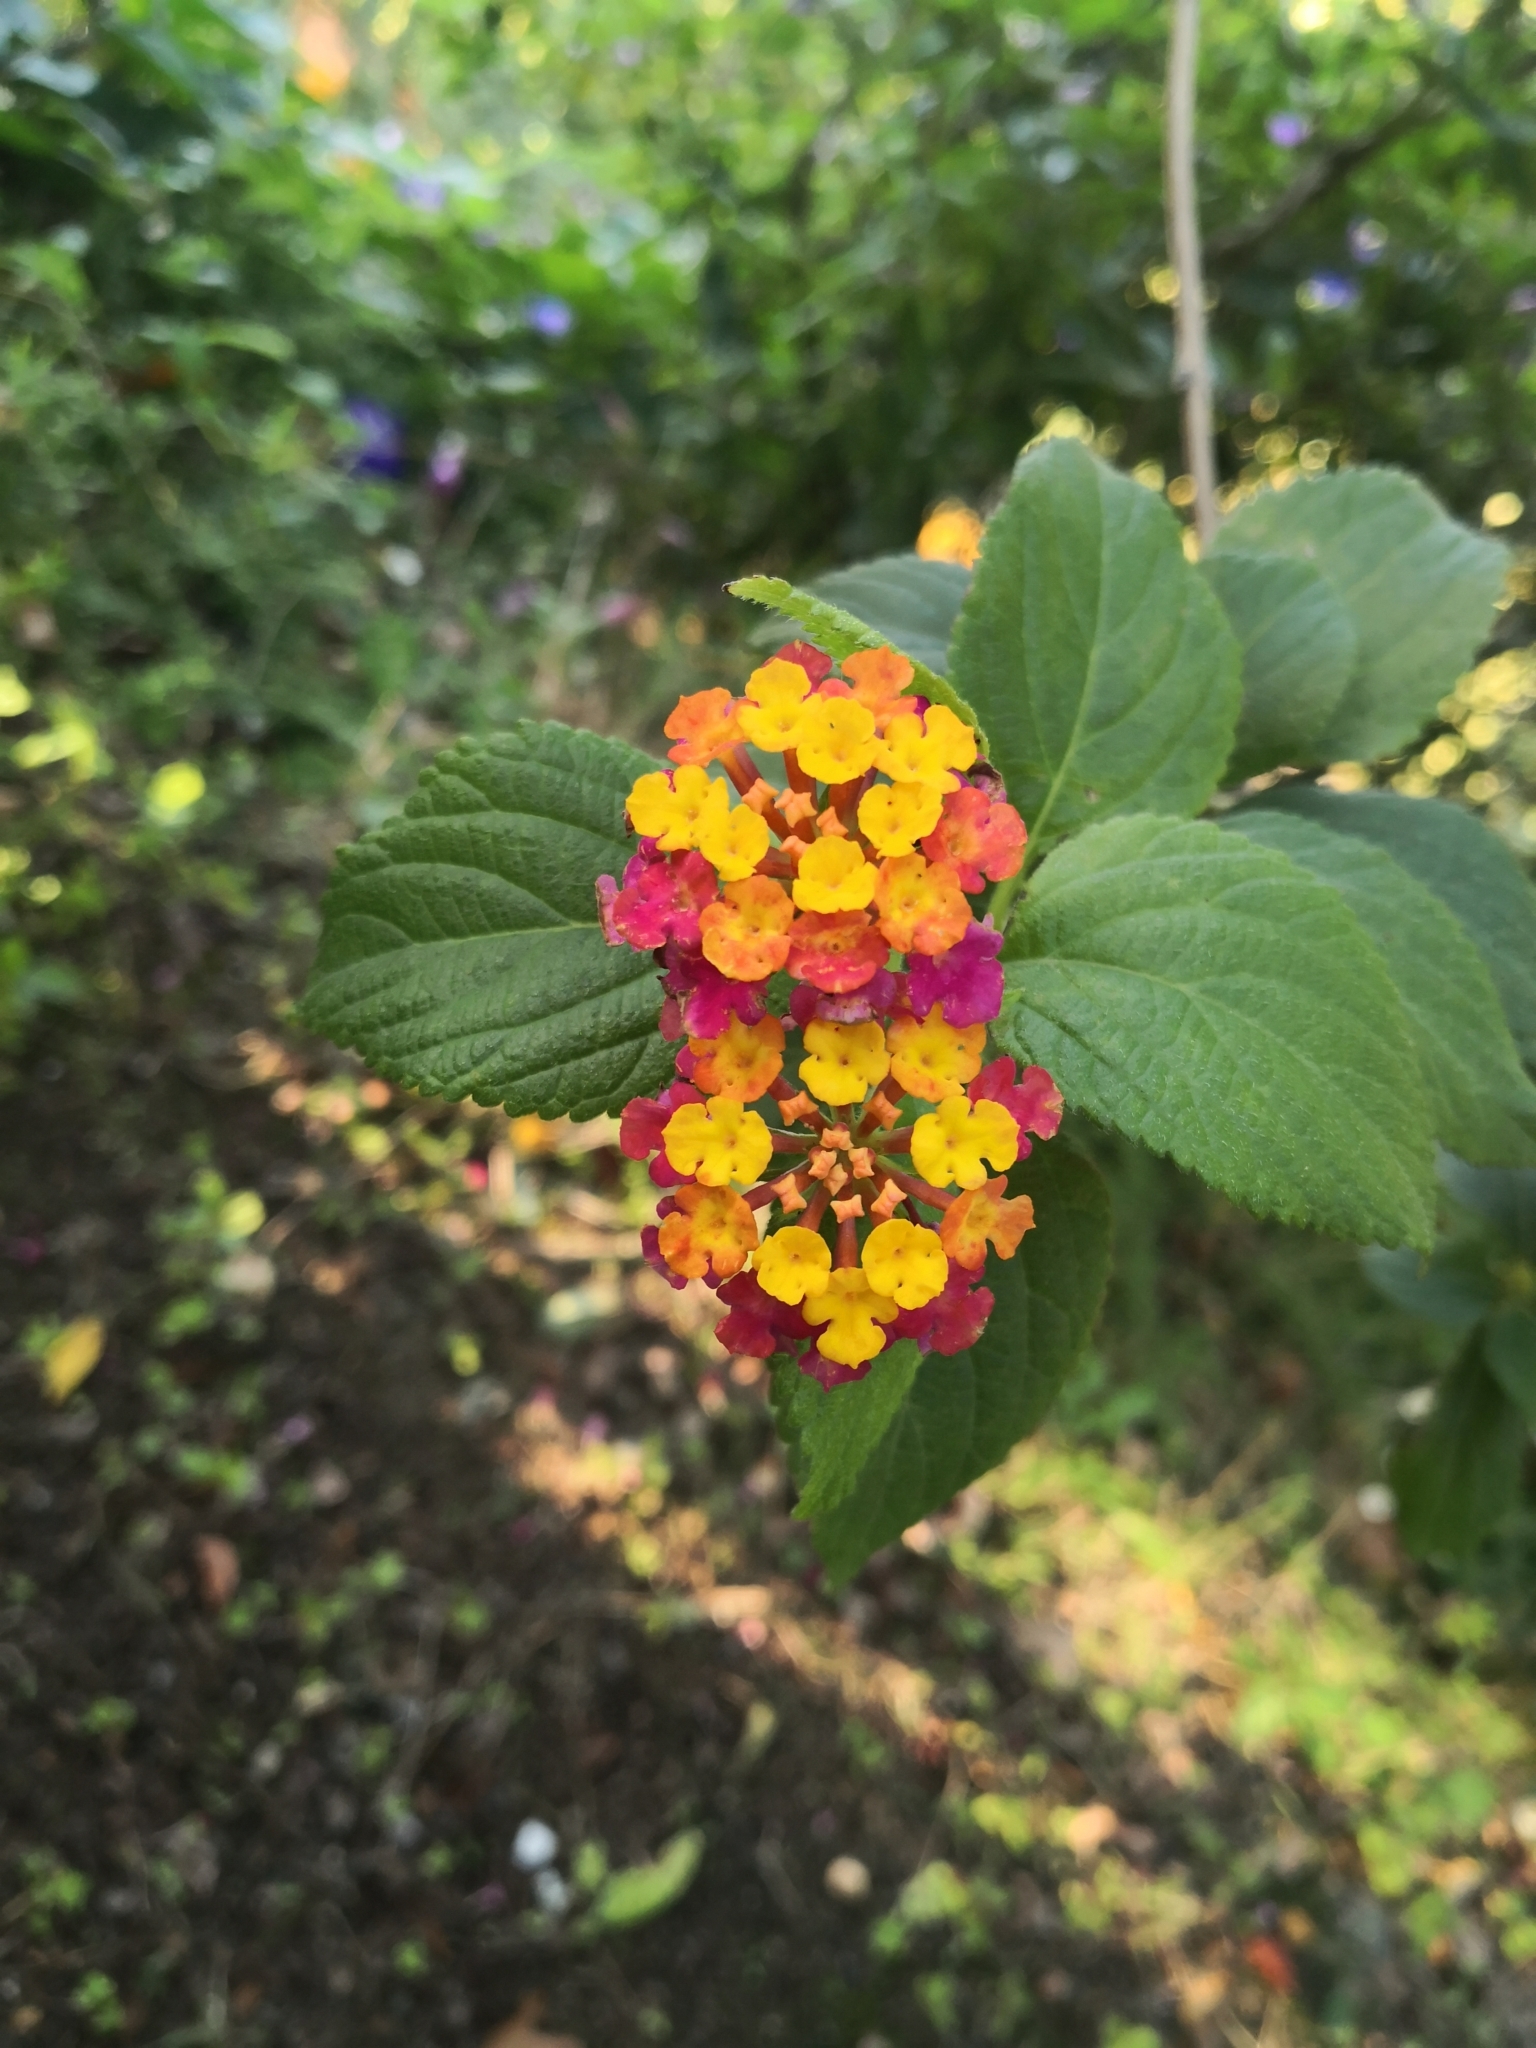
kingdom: Plantae
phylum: Tracheophyta
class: Magnoliopsida
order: Lamiales
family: Verbenaceae
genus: Lantana
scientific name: Lantana camara
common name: Lantana
